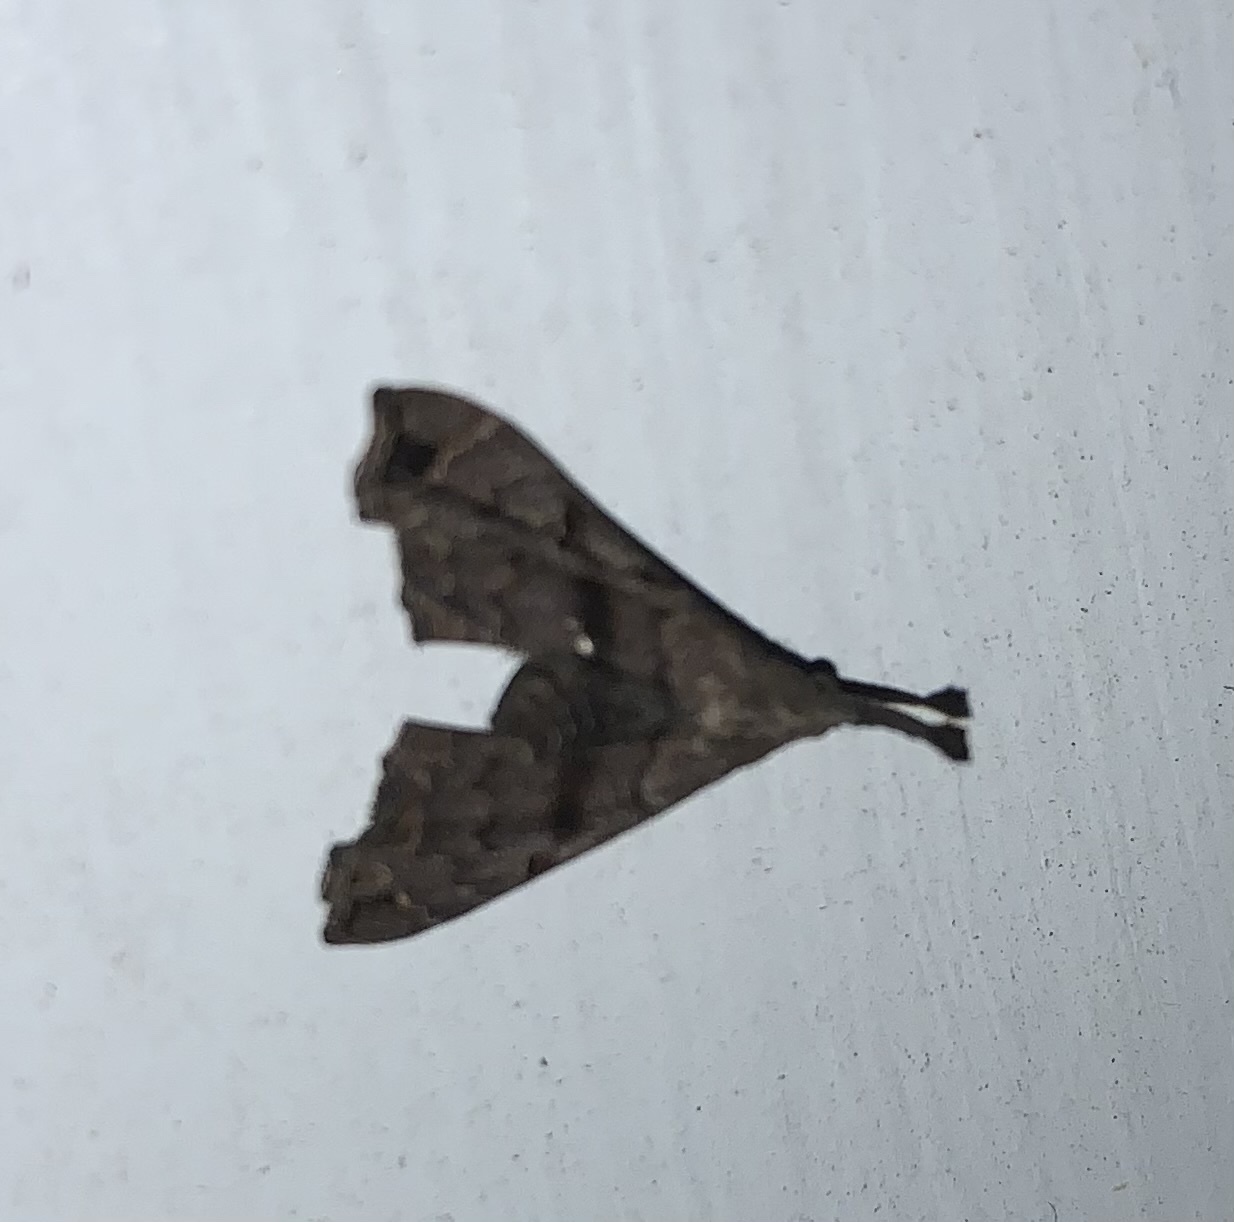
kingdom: Animalia
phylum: Arthropoda
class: Insecta
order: Lepidoptera
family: Erebidae
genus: Palthis
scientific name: Palthis asopialis
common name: Faint-spotted palthis moth
